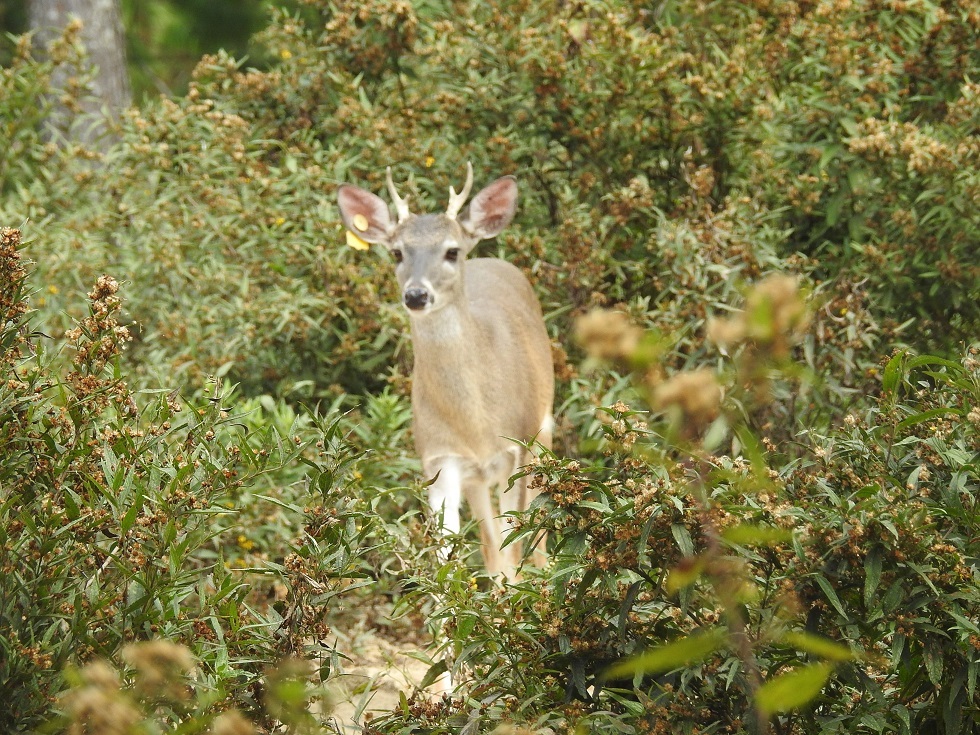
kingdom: Animalia
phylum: Chordata
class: Mammalia
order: Artiodactyla
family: Cervidae
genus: Odocoileus
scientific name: Odocoileus virginianus
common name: White-tailed deer
